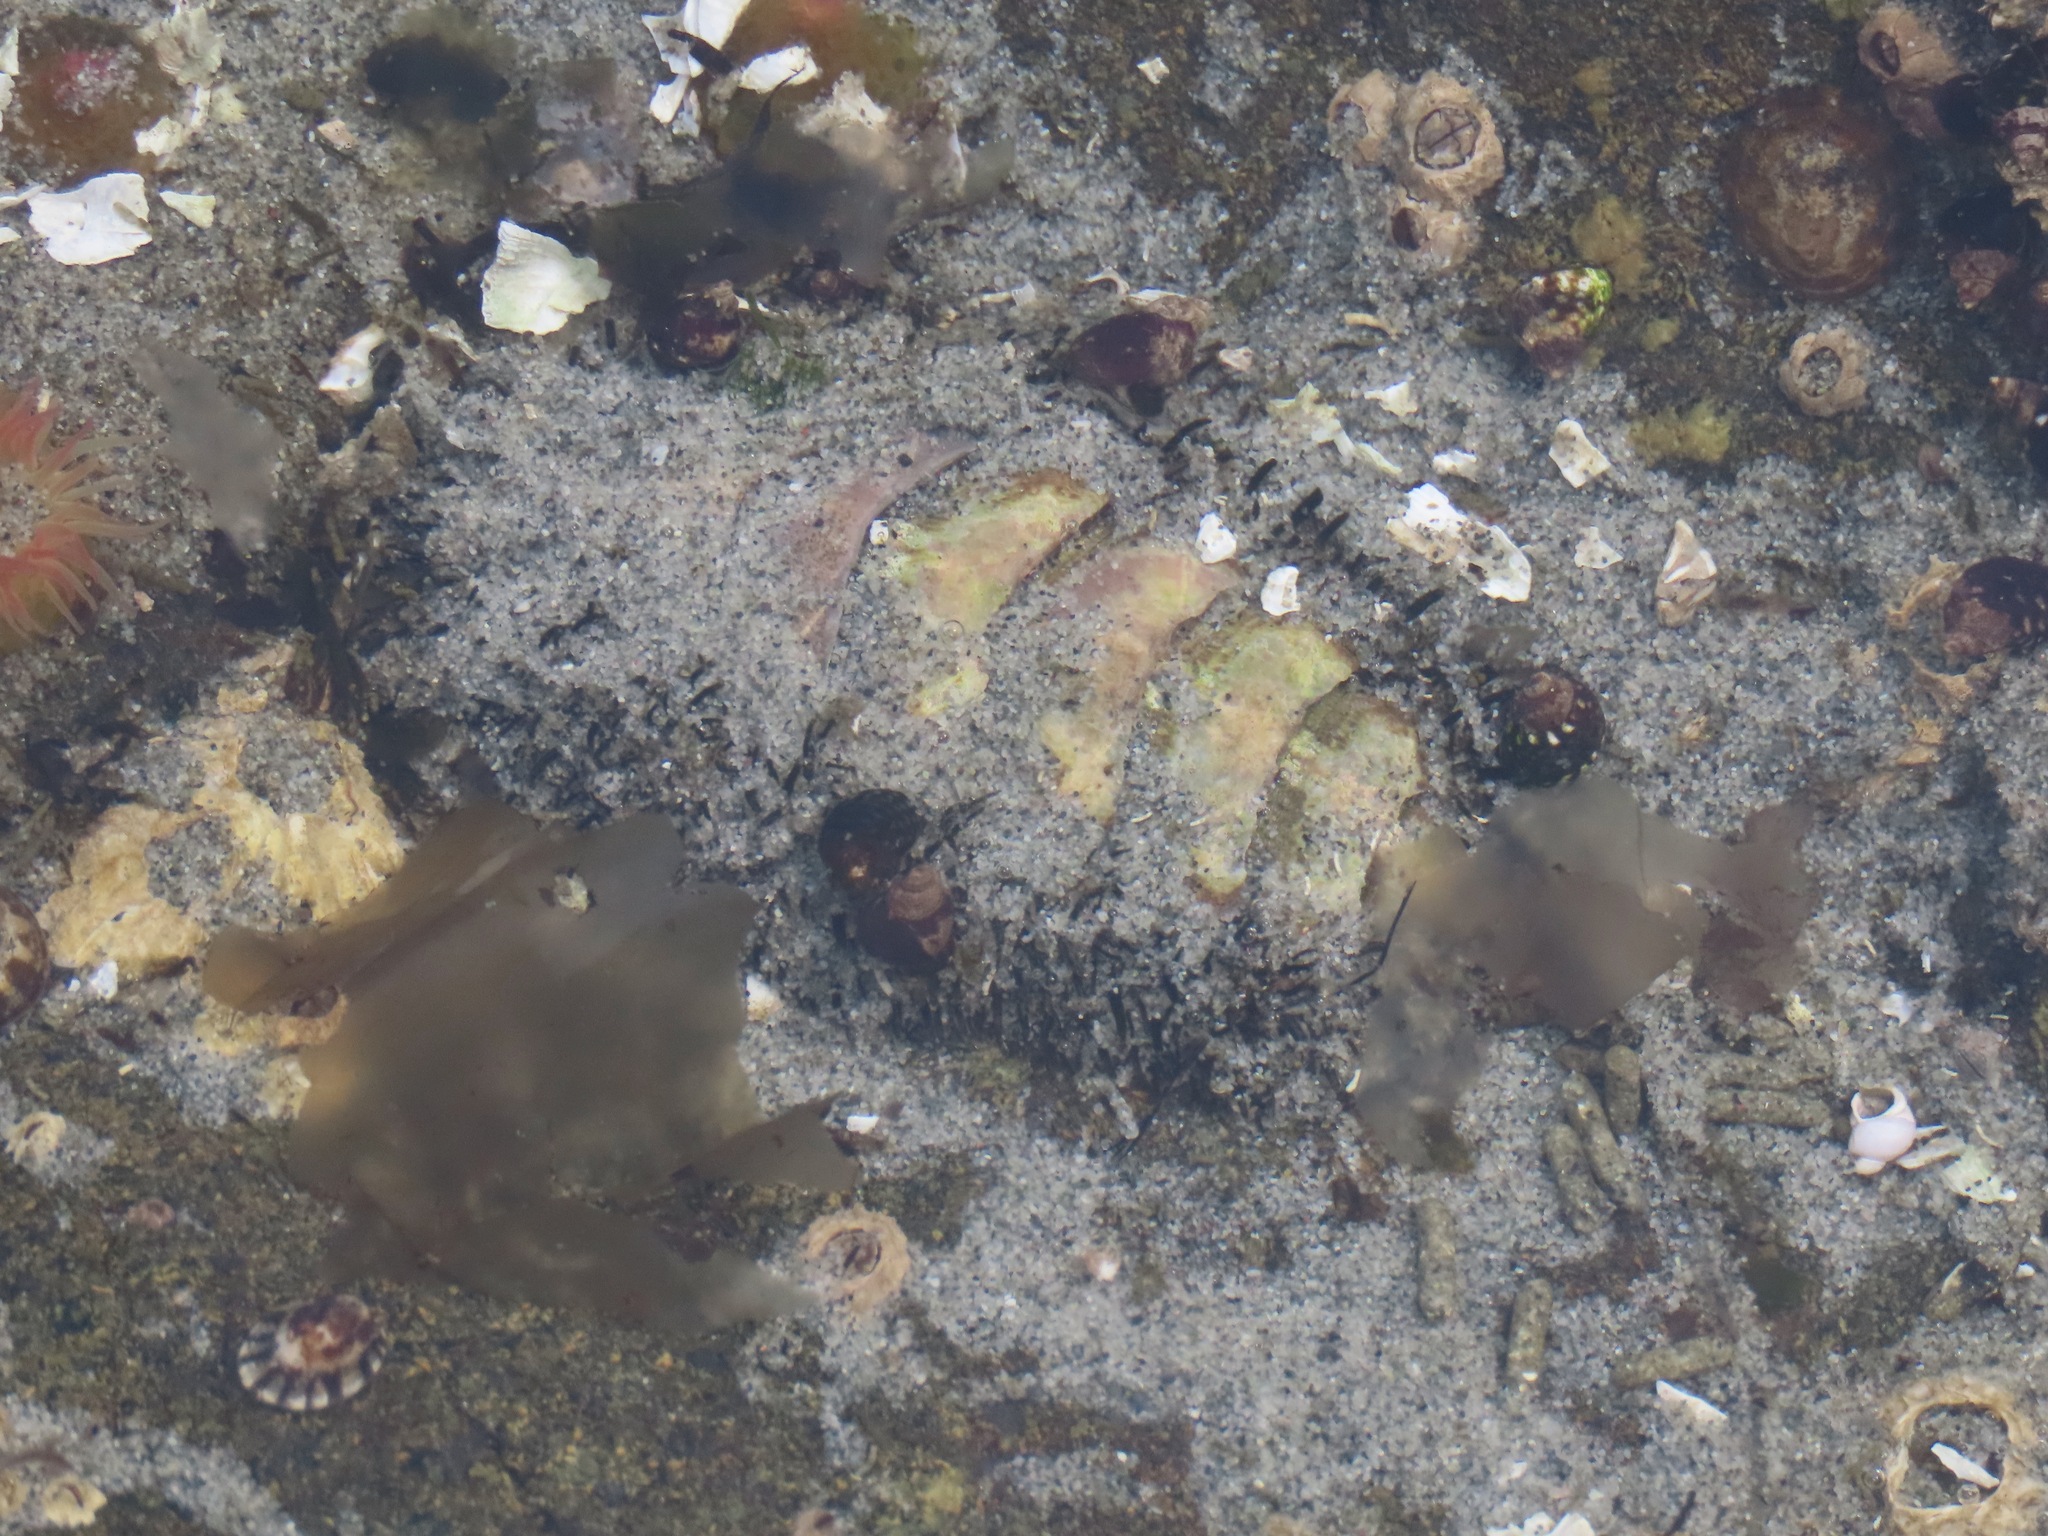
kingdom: Animalia
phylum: Mollusca
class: Polyplacophora
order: Chitonida
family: Mopaliidae
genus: Mopalia
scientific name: Mopalia muscosa
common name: Mossy chiton
